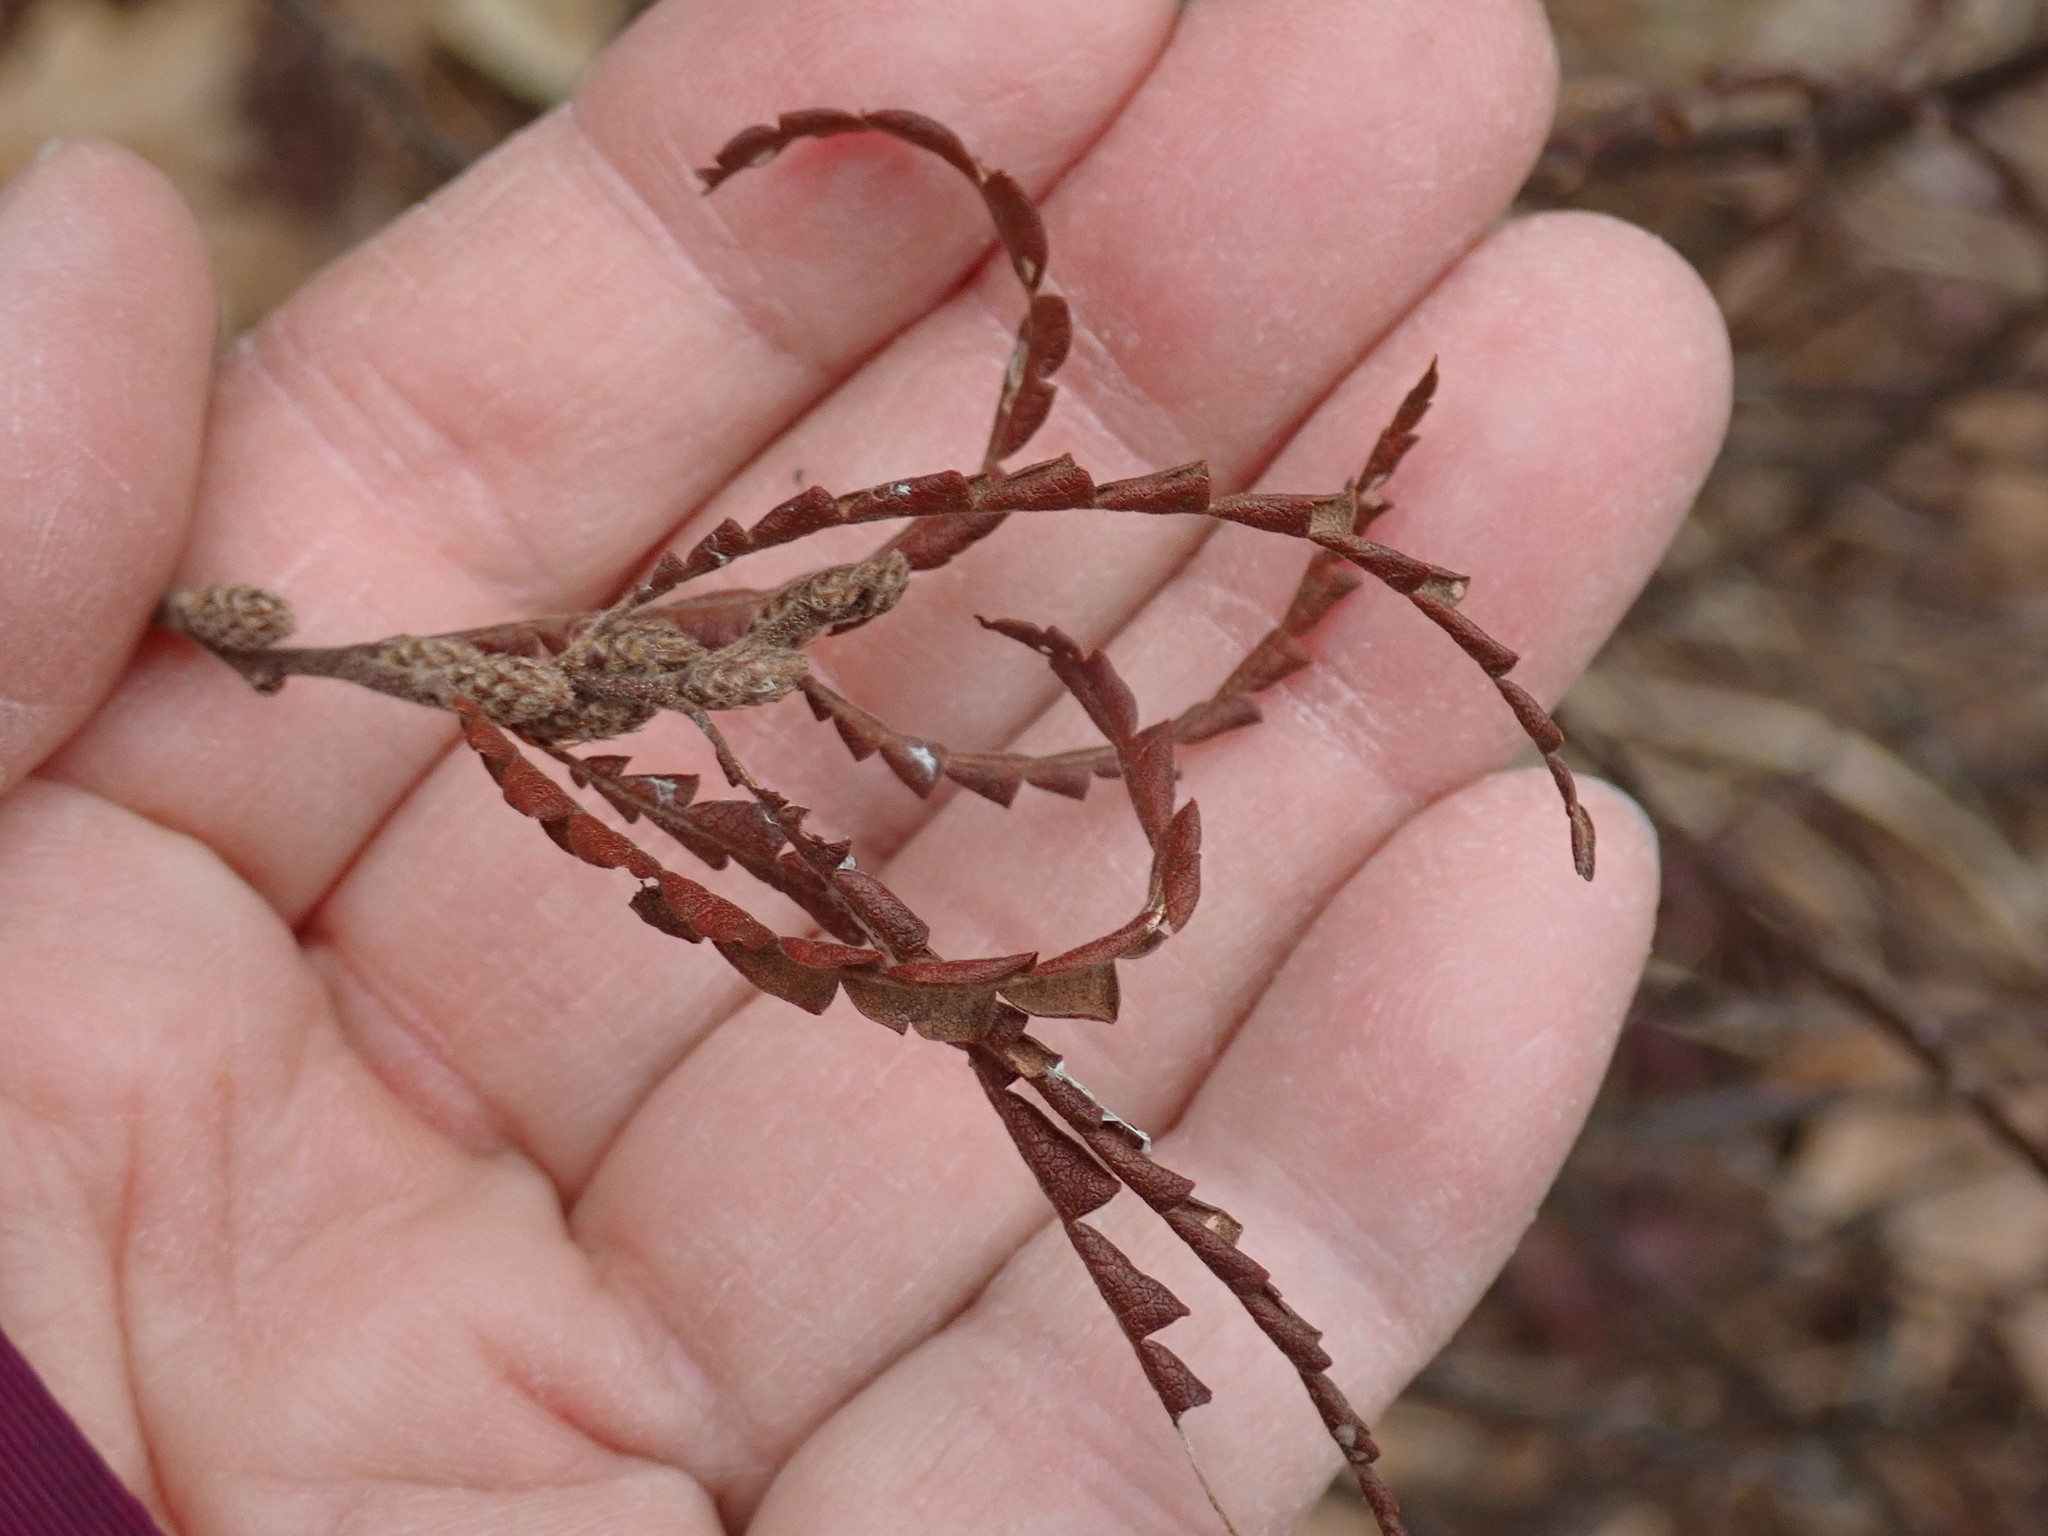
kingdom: Plantae
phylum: Tracheophyta
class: Magnoliopsida
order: Fagales
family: Myricaceae
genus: Comptonia
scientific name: Comptonia peregrina
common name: Sweet-fern
